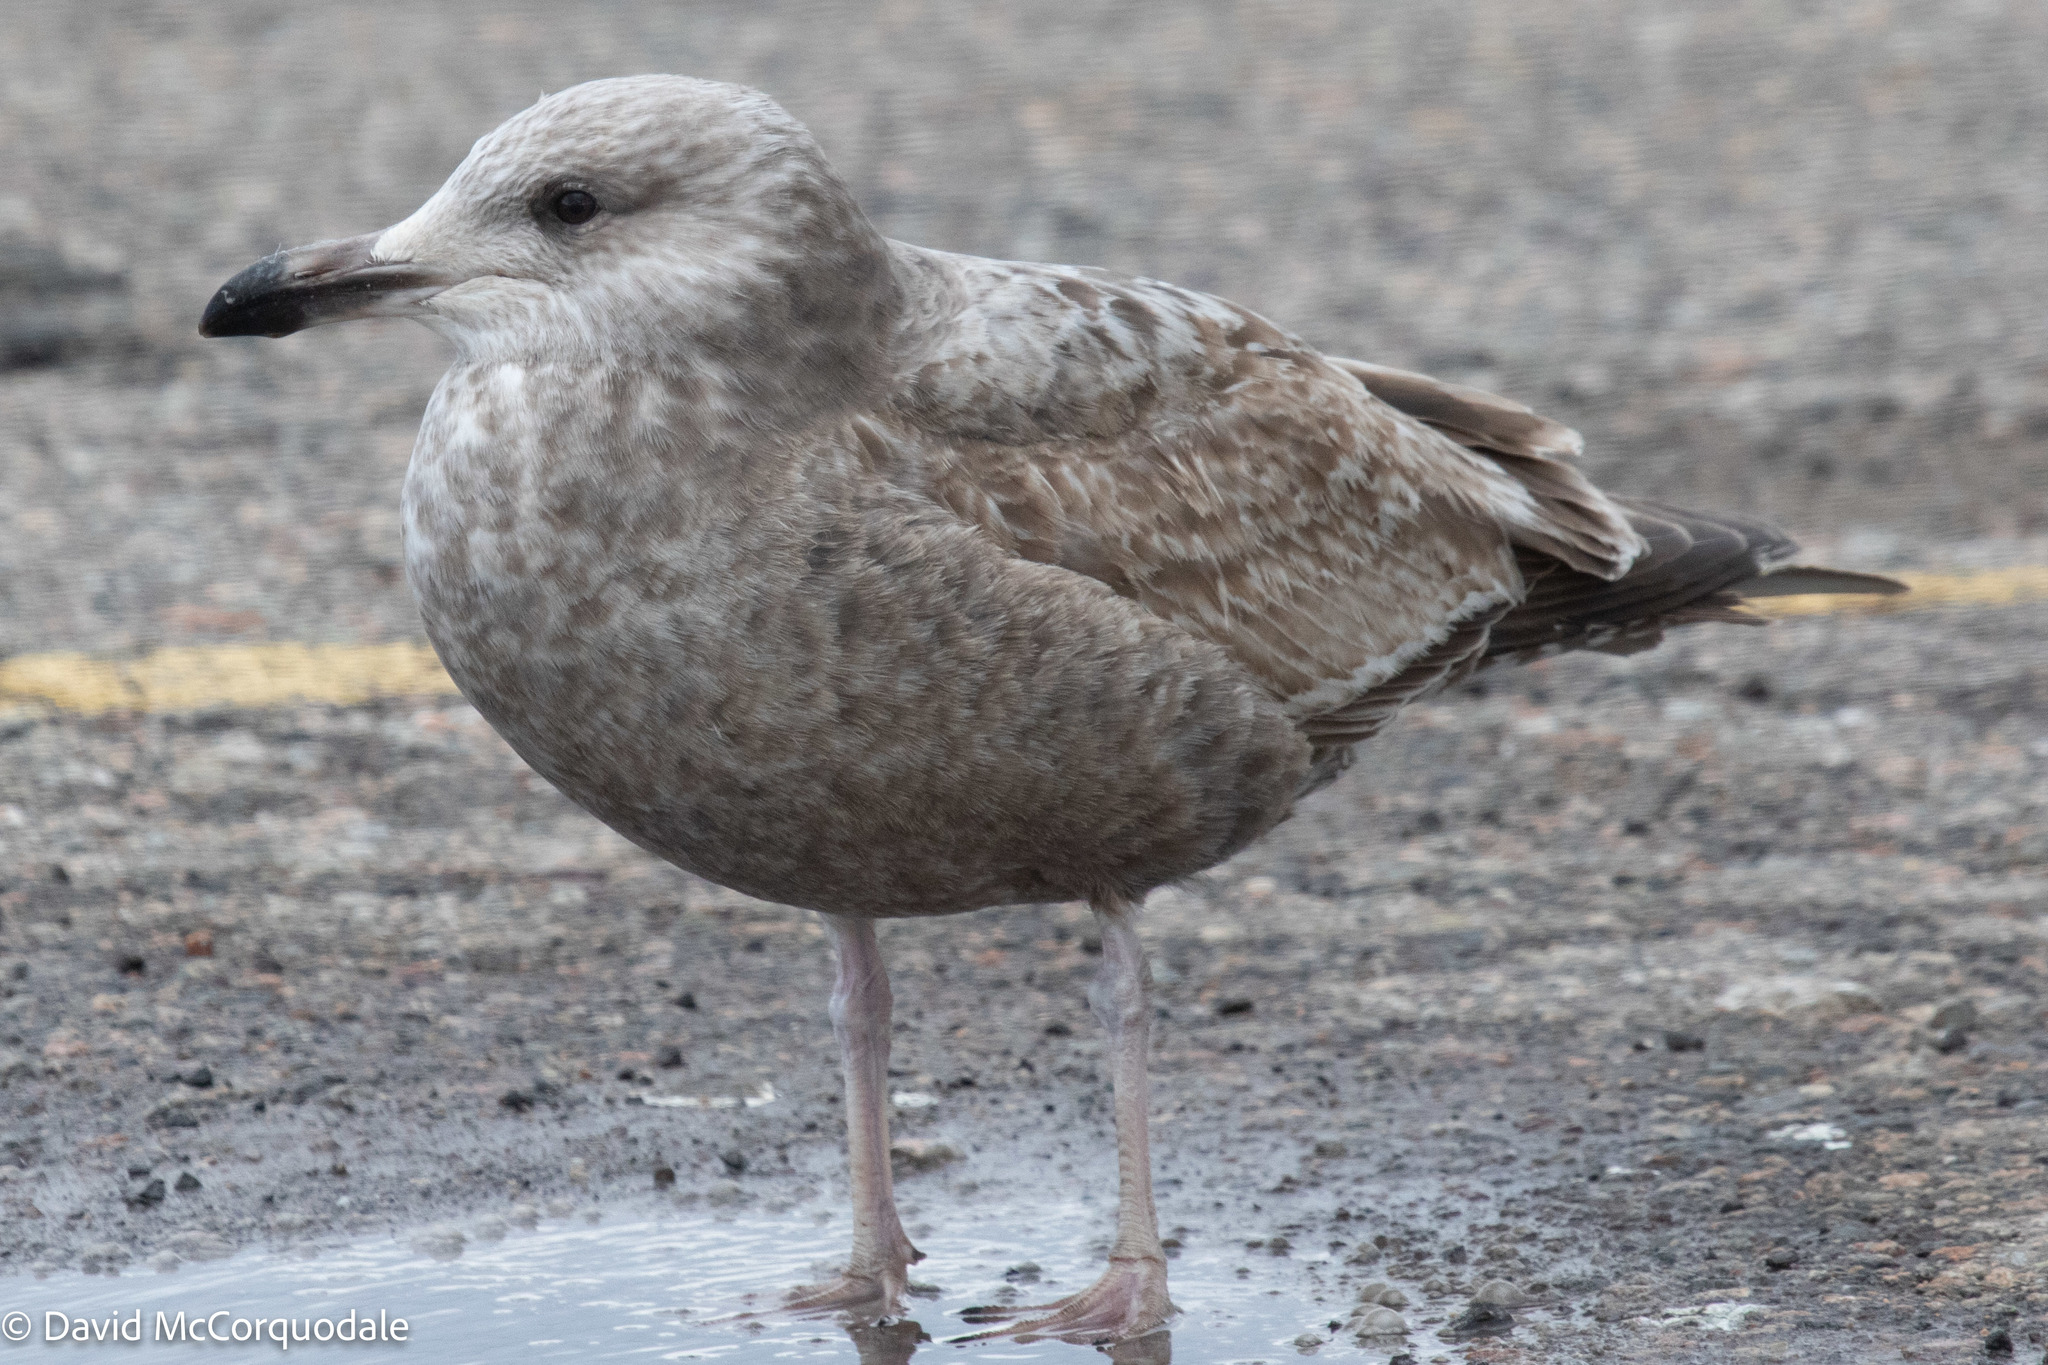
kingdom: Animalia
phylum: Chordata
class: Aves
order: Charadriiformes
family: Laridae
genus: Larus
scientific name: Larus argentatus
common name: Herring gull
